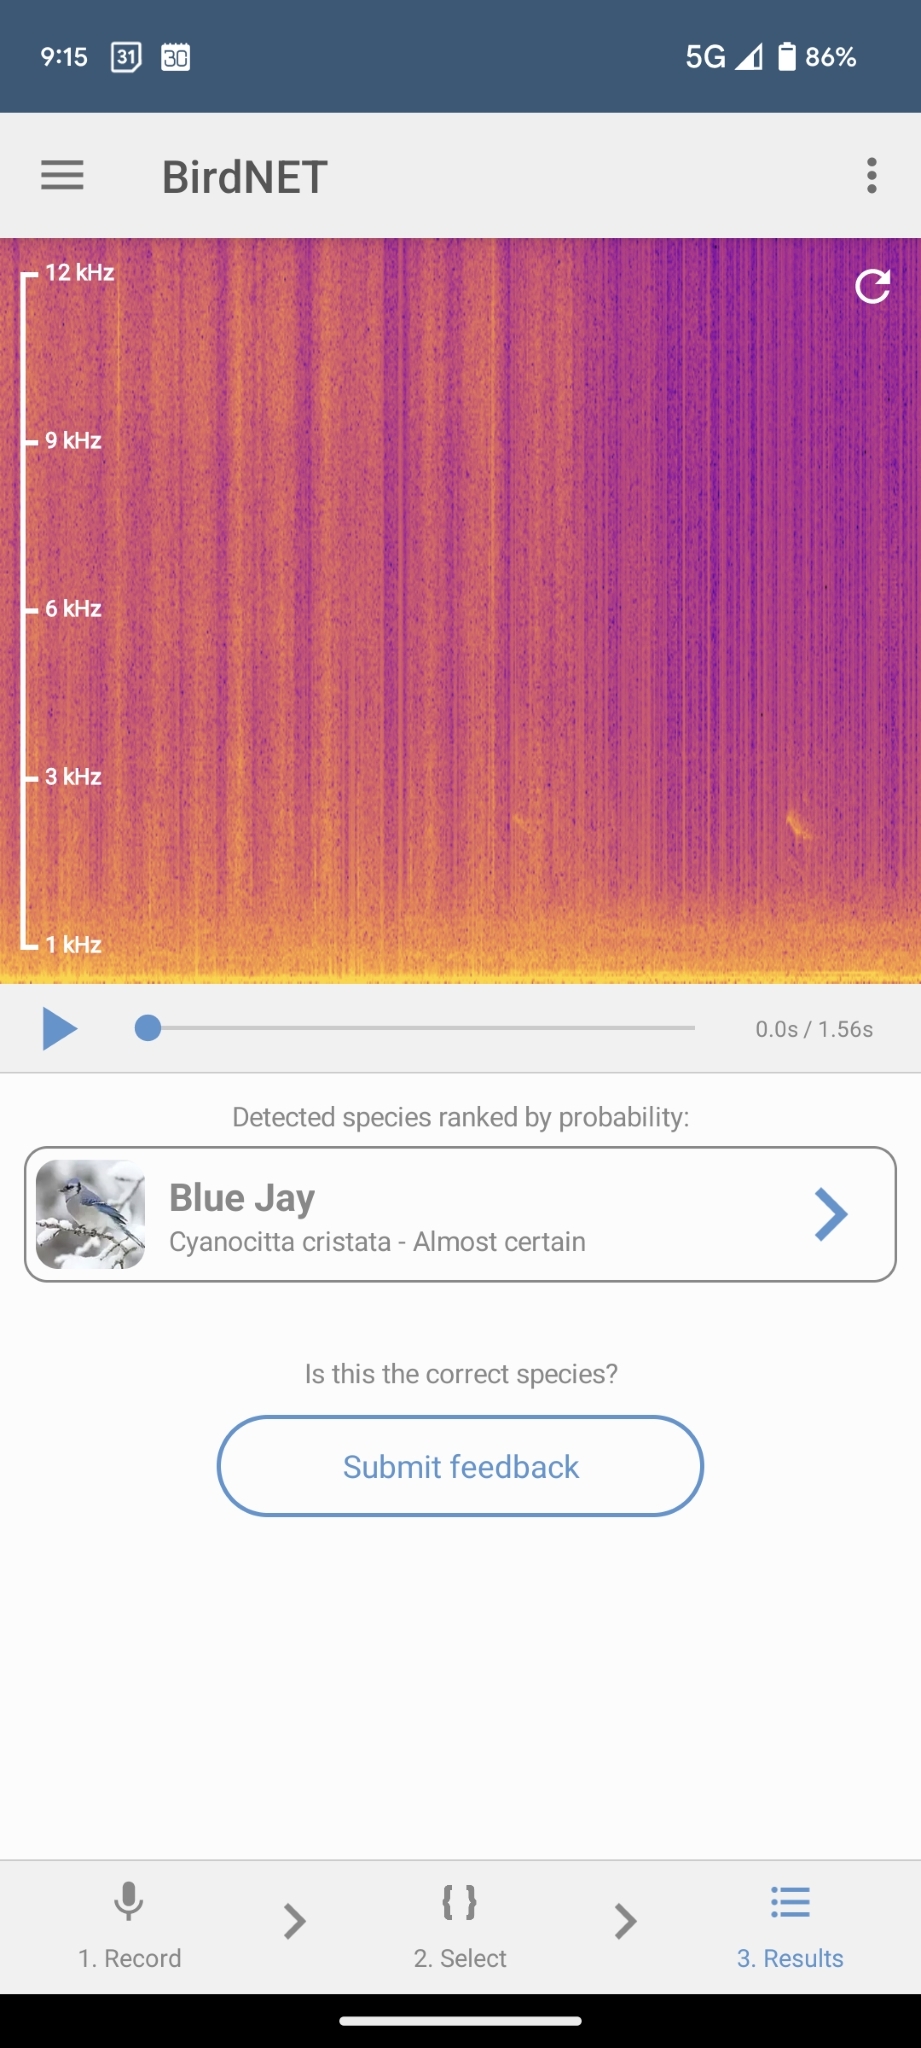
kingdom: Animalia
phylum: Chordata
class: Aves
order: Passeriformes
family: Corvidae
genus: Cyanocitta
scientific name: Cyanocitta cristata
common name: Blue jay
